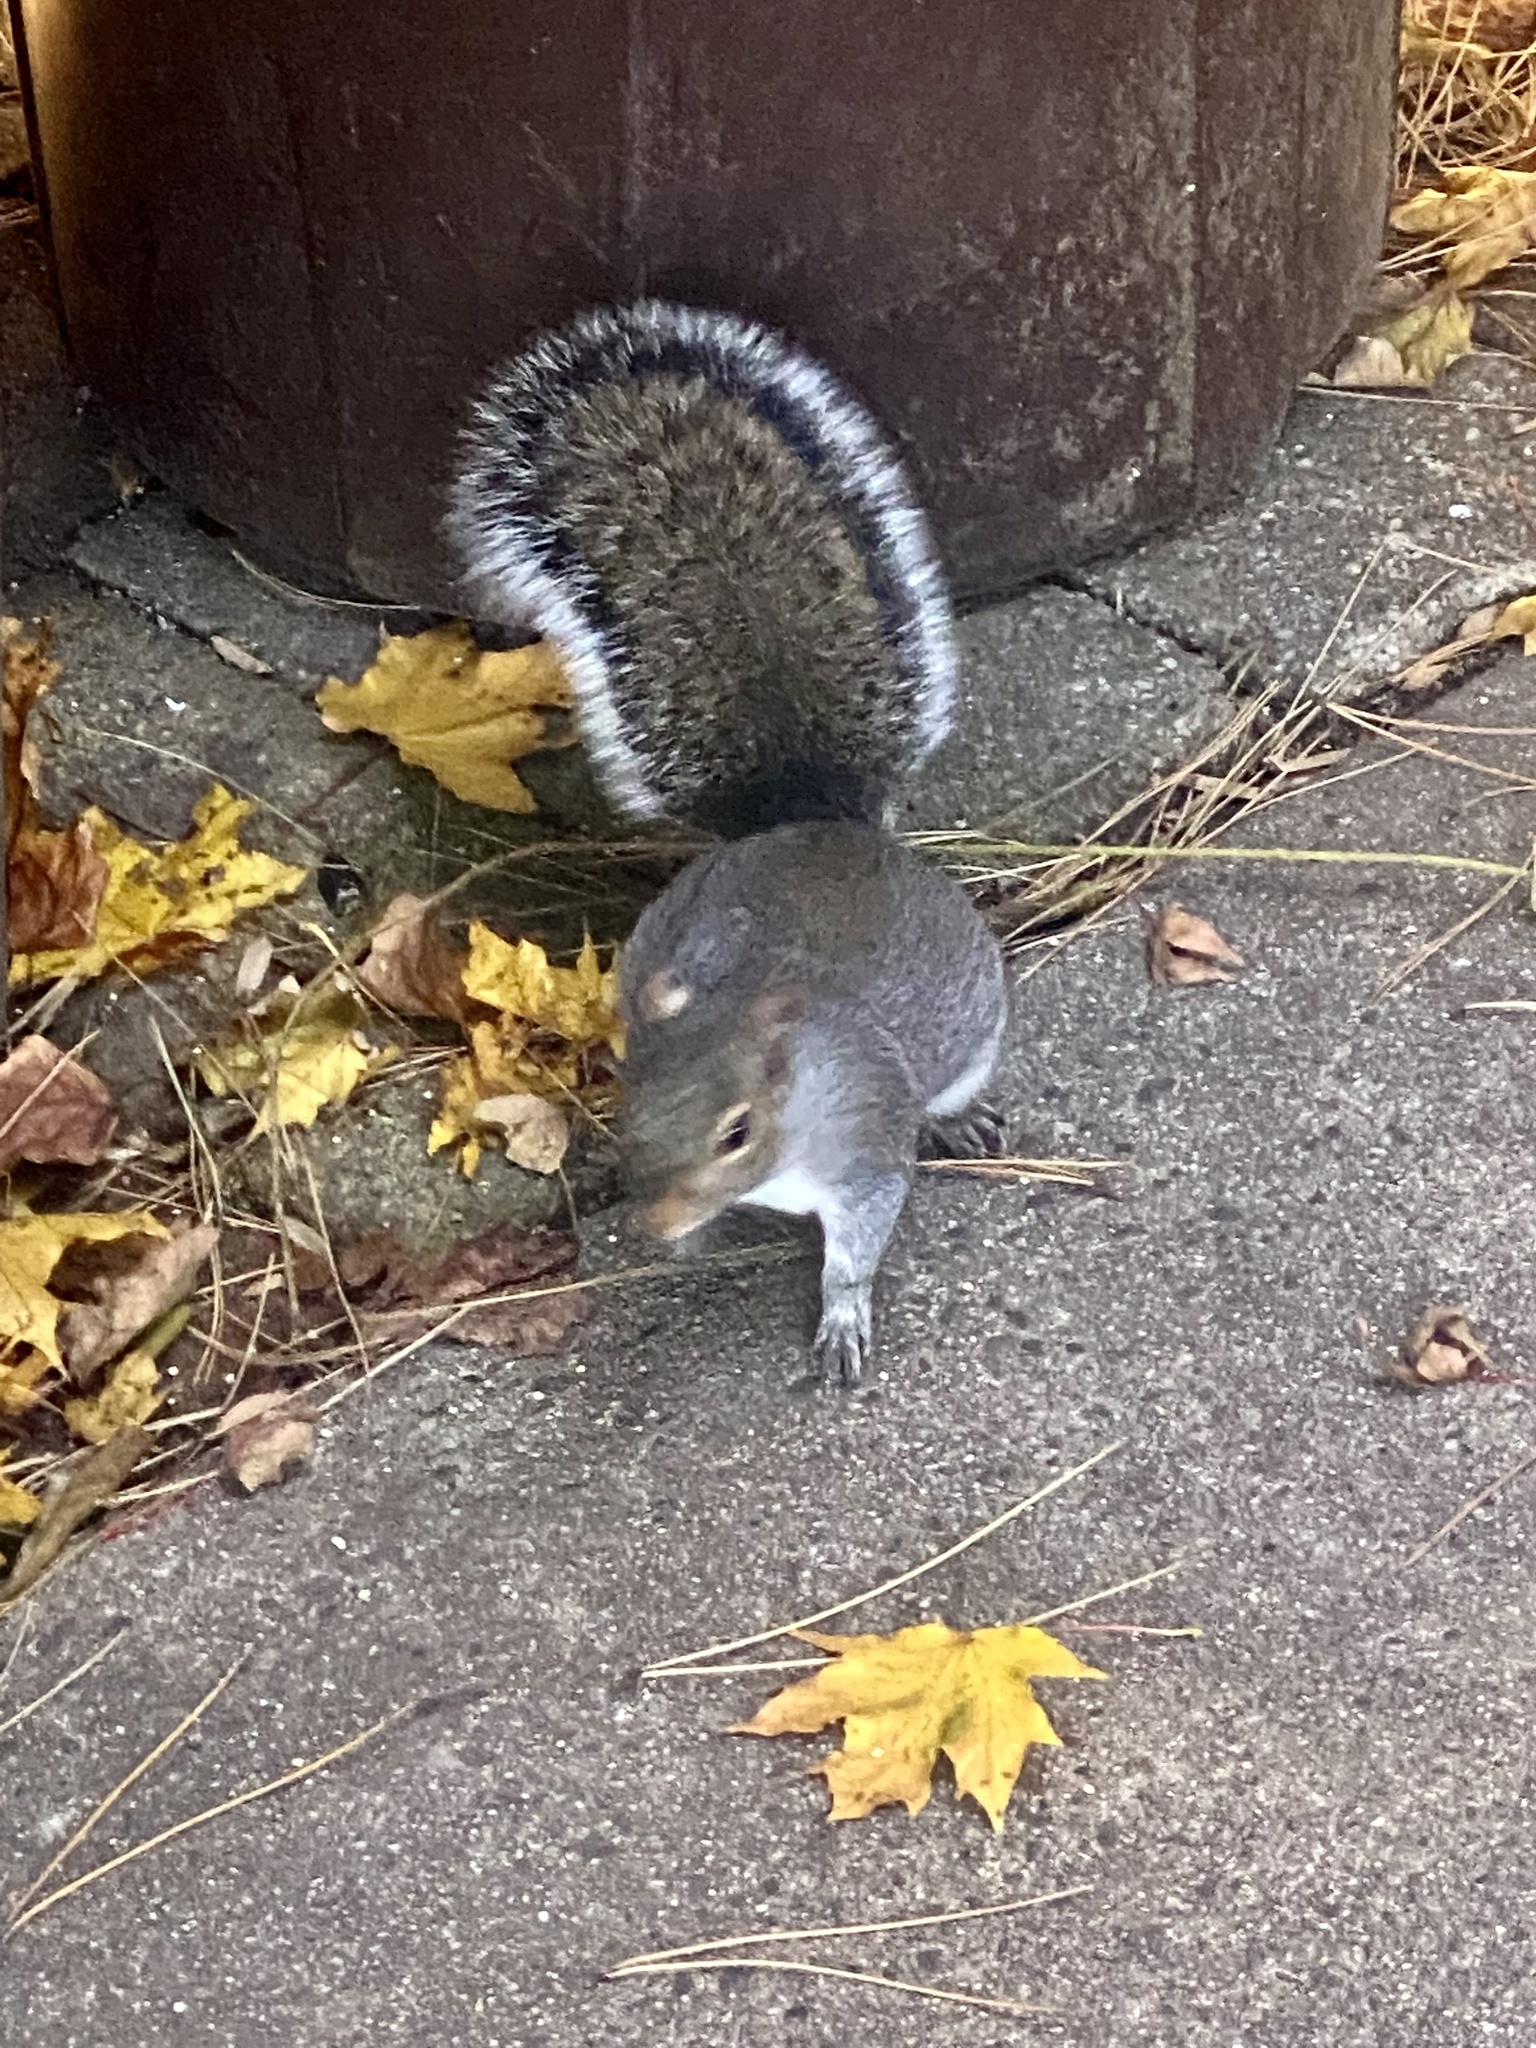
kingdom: Animalia
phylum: Chordata
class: Mammalia
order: Rodentia
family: Sciuridae
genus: Sciurus
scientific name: Sciurus carolinensis
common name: Eastern gray squirrel
